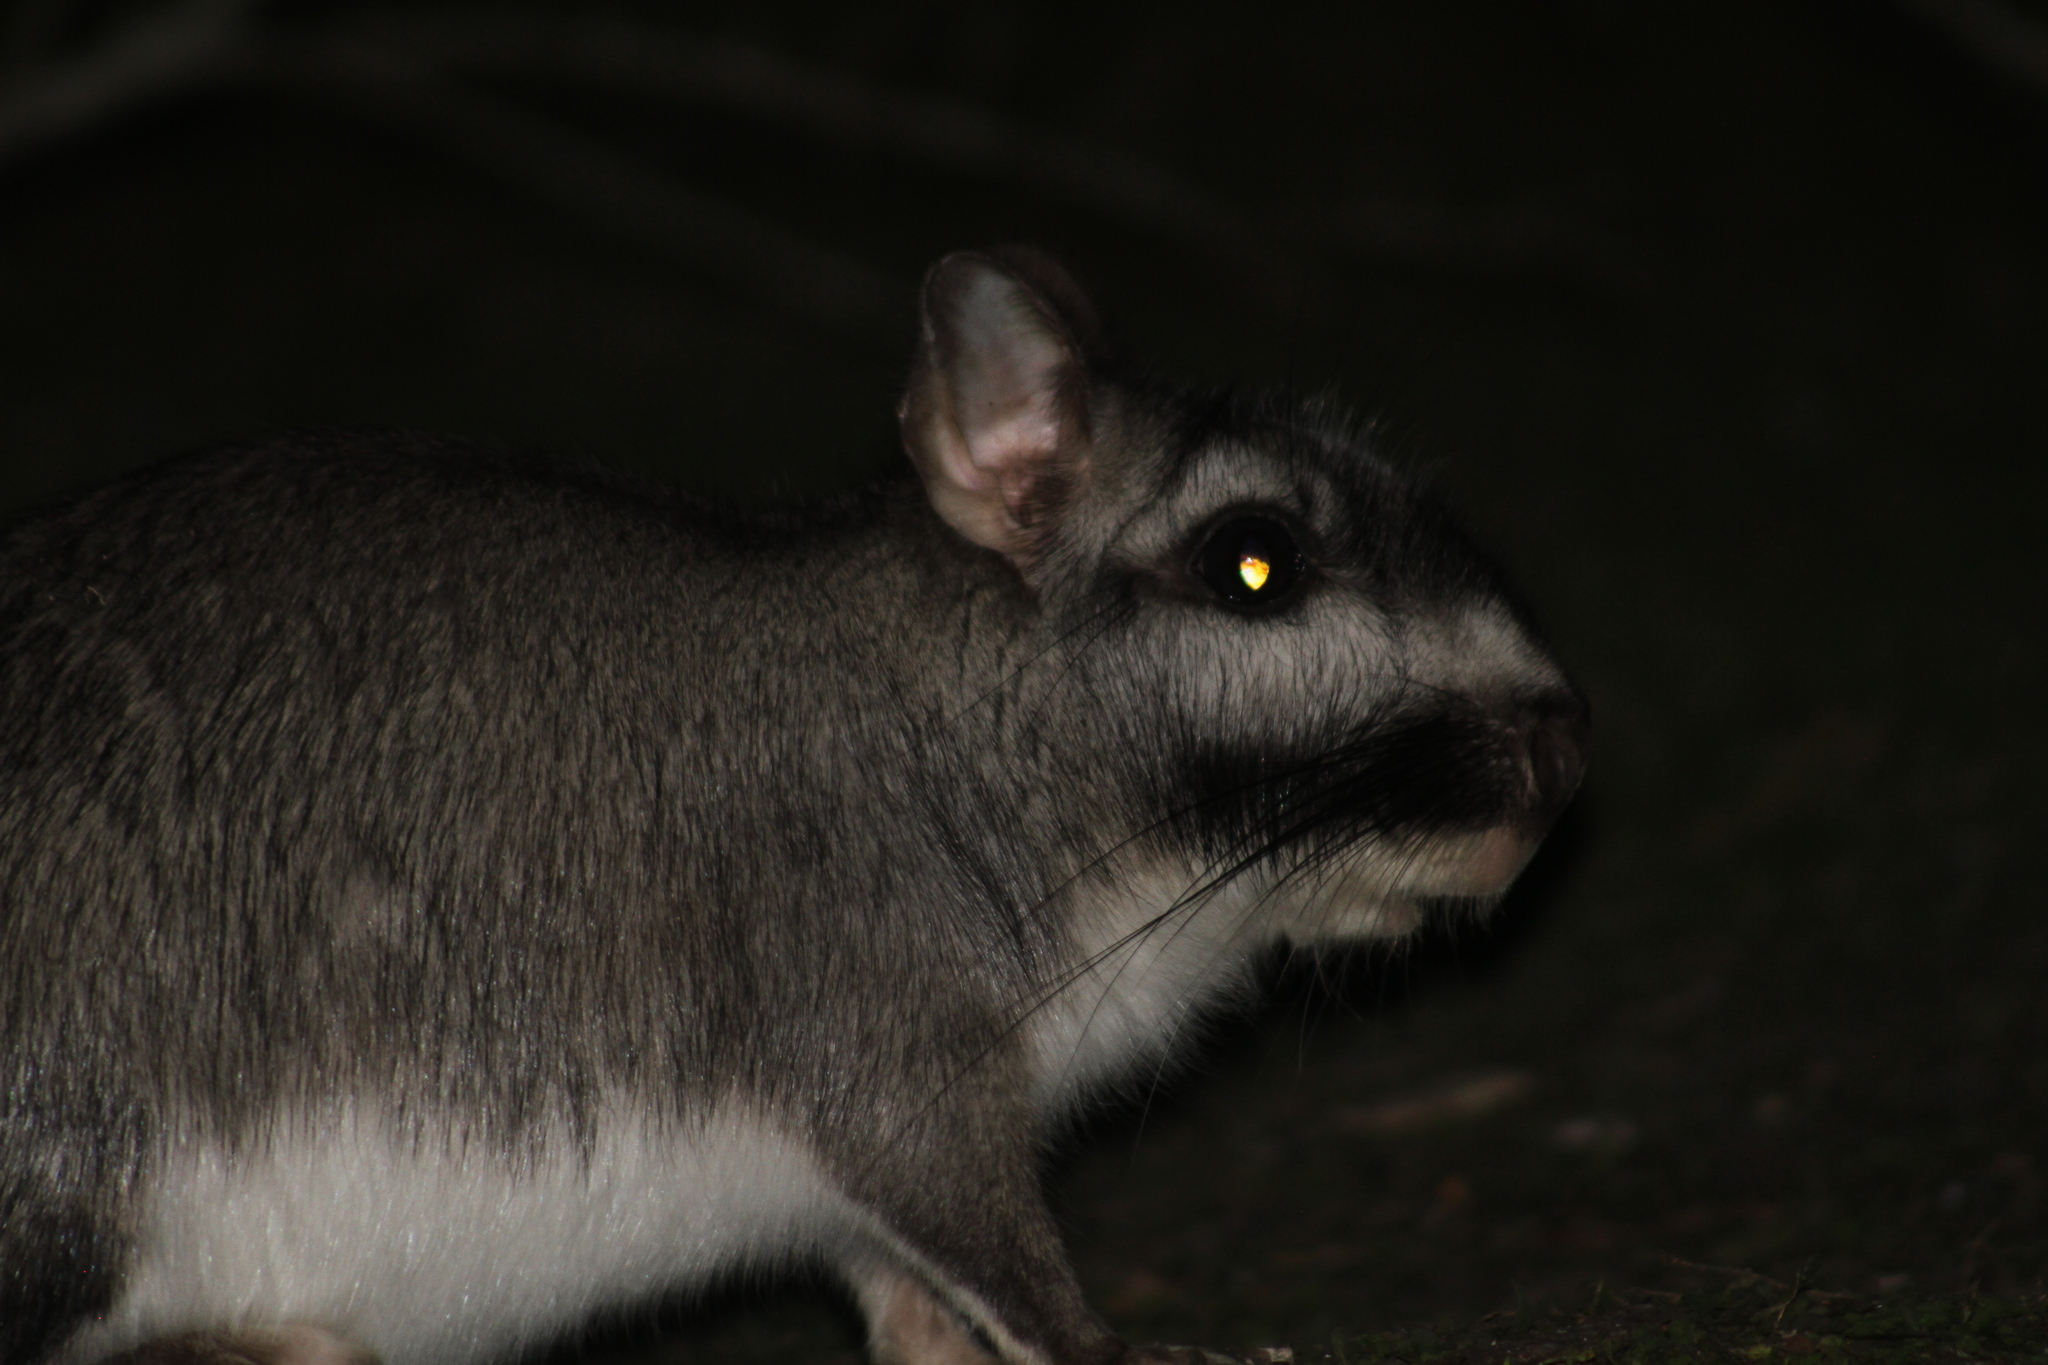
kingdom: Animalia
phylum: Chordata
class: Mammalia
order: Rodentia
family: Chinchillidae
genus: Lagostomus
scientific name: Lagostomus maximus
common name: Plains viscacha
